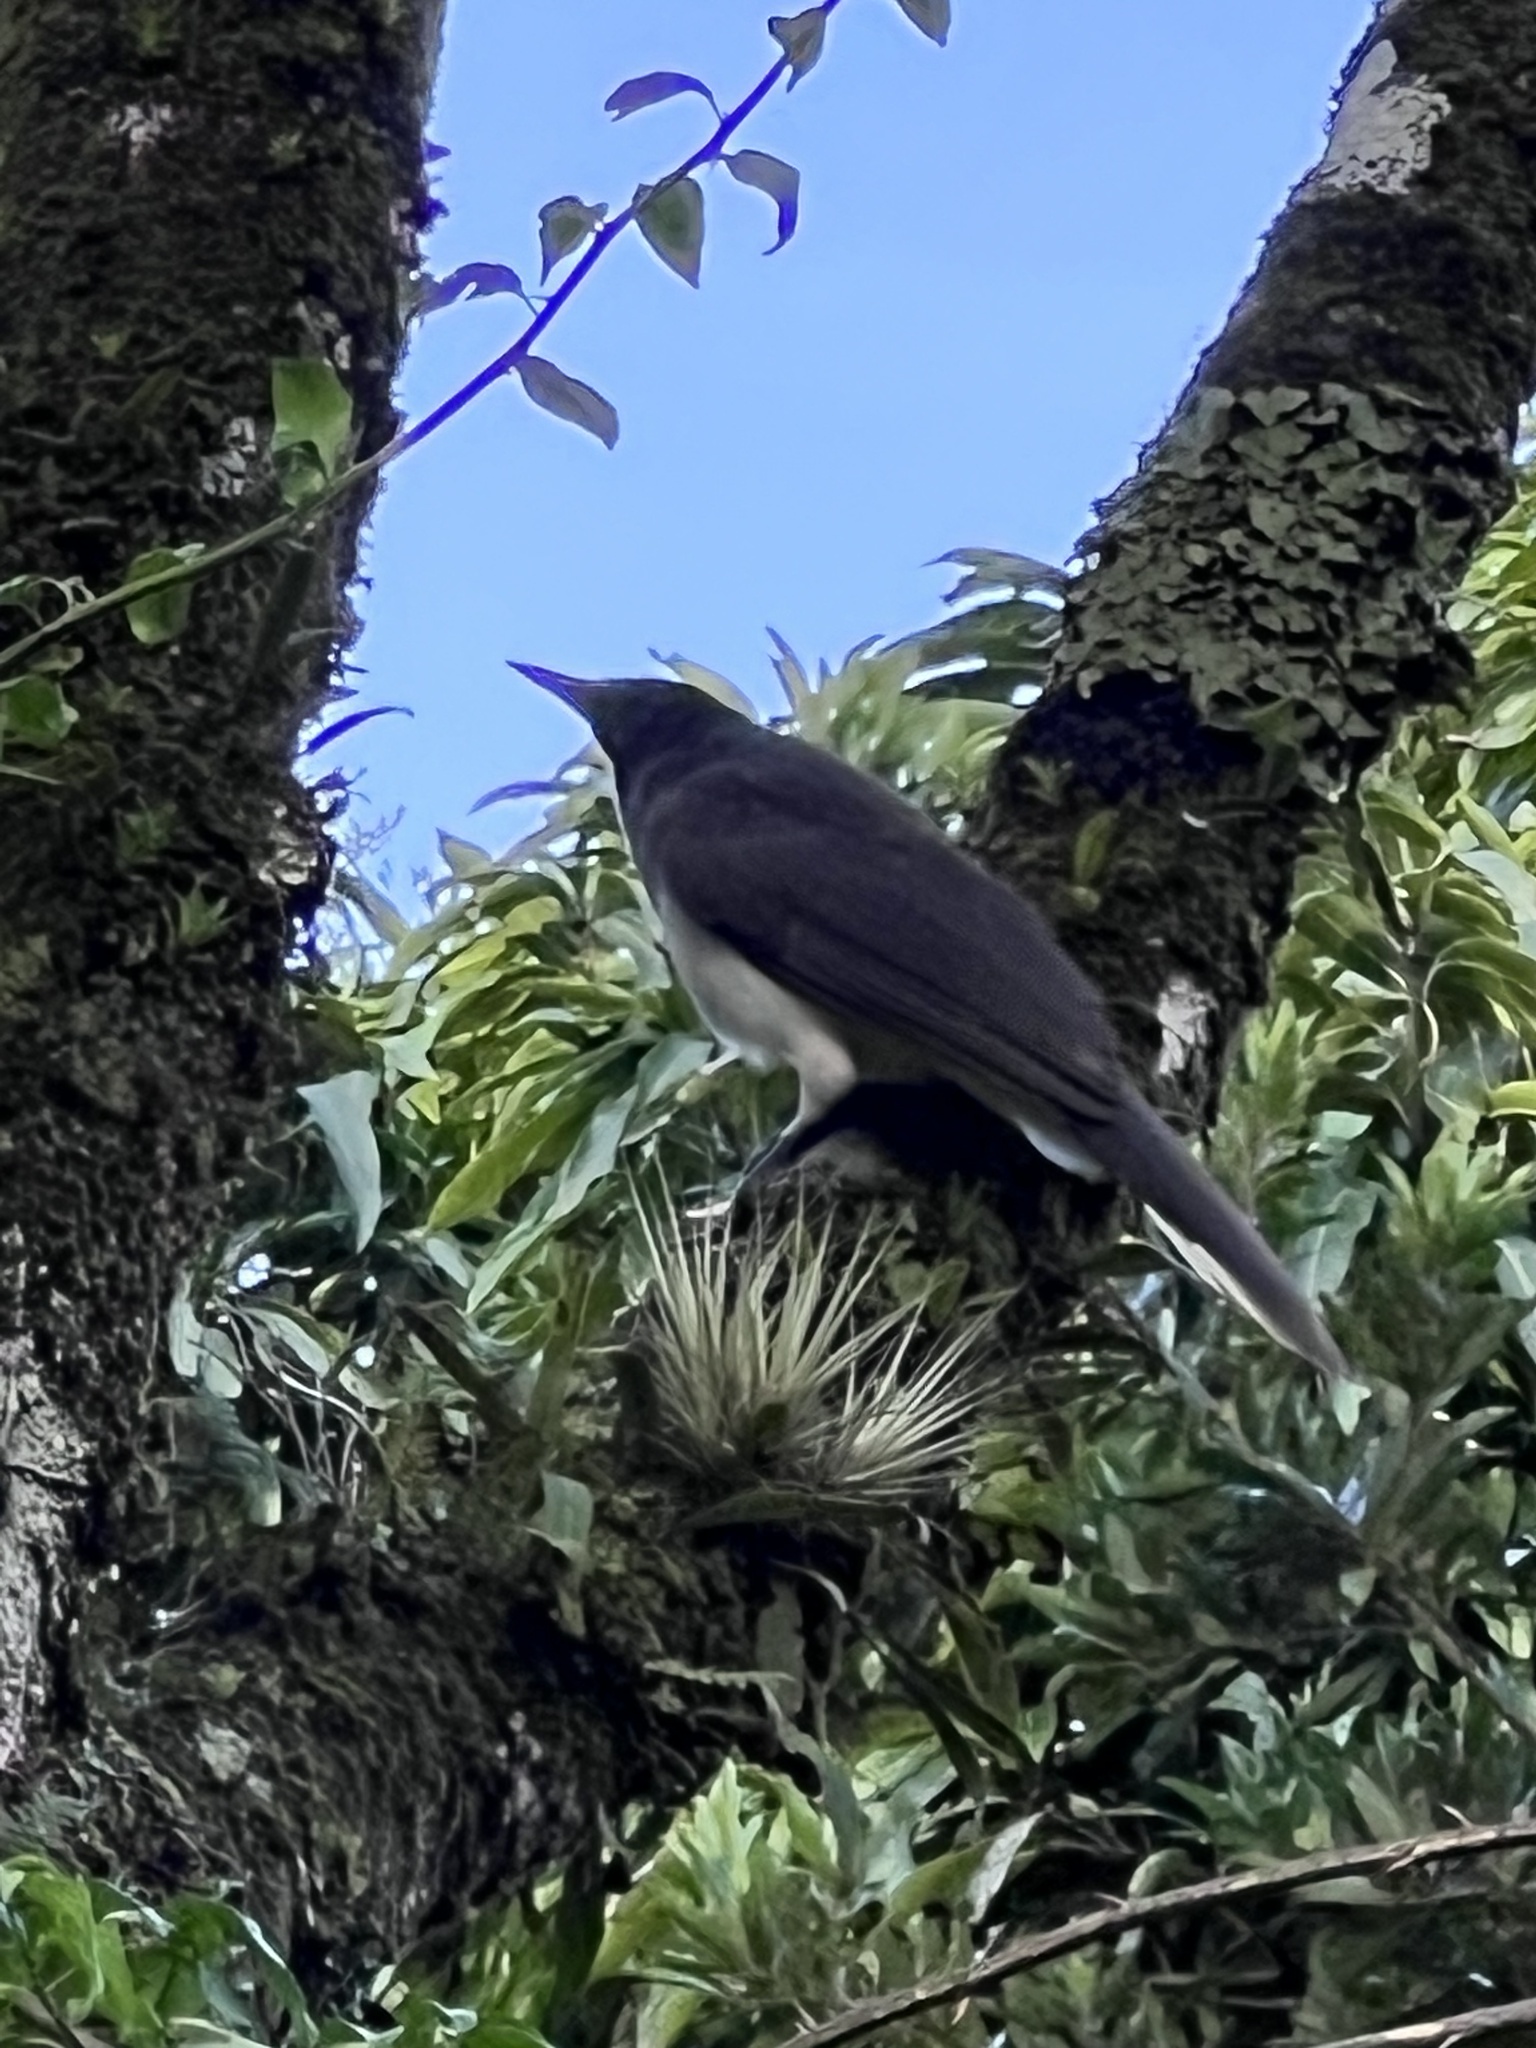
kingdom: Animalia
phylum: Chordata
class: Aves
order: Passeriformes
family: Corvidae
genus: Psilorhinus
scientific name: Psilorhinus morio
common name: Brown jay
